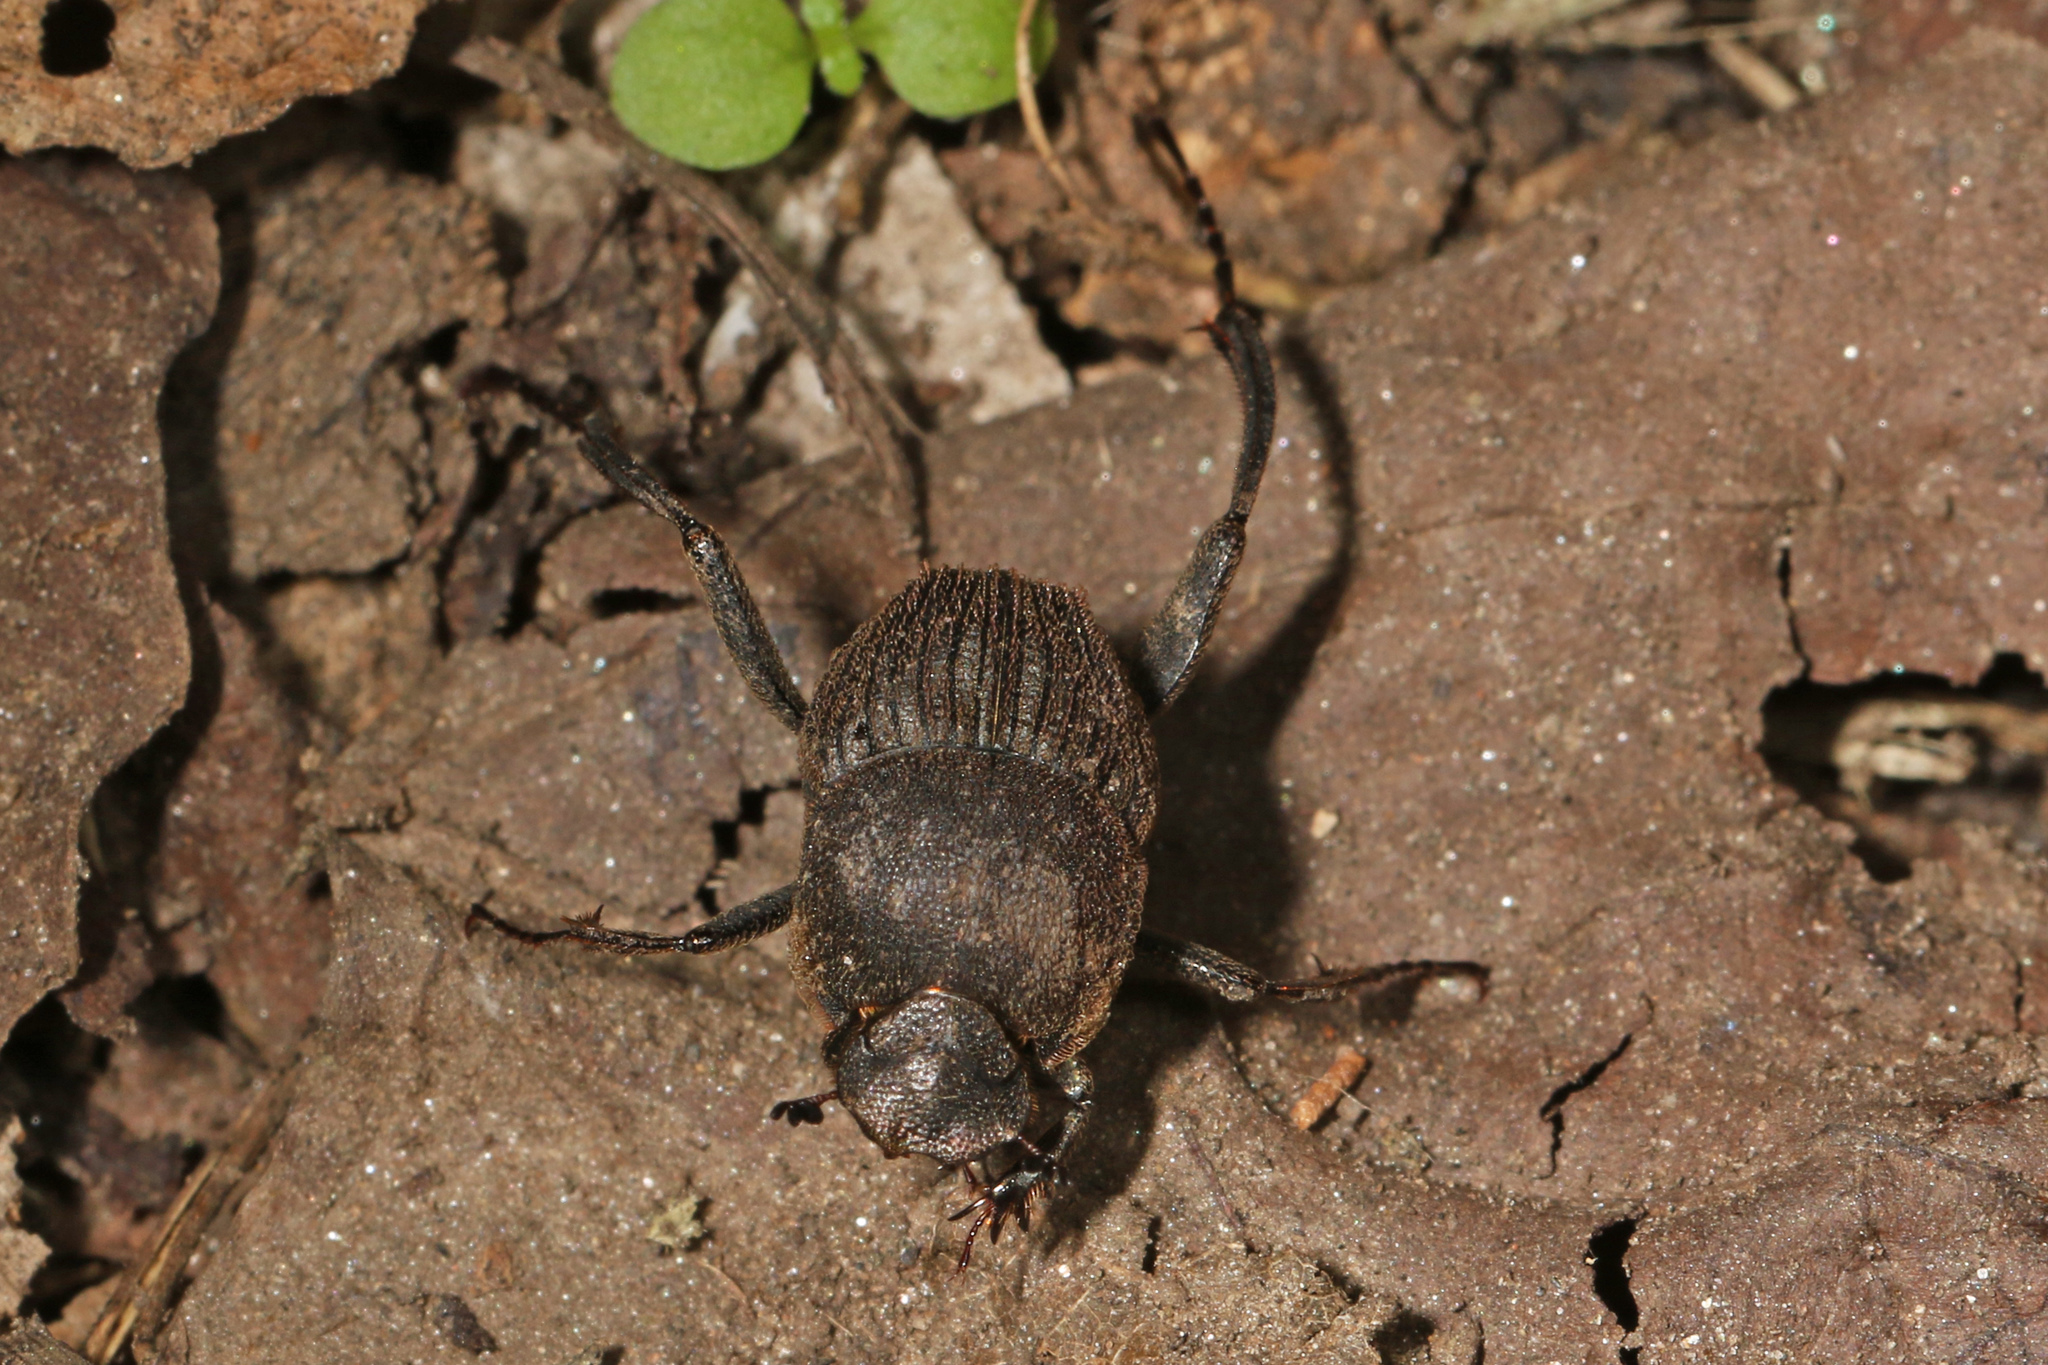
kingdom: Animalia
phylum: Arthropoda
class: Insecta
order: Coleoptera
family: Scarabaeidae
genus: Sisyphus
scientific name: Sisyphus goryi
